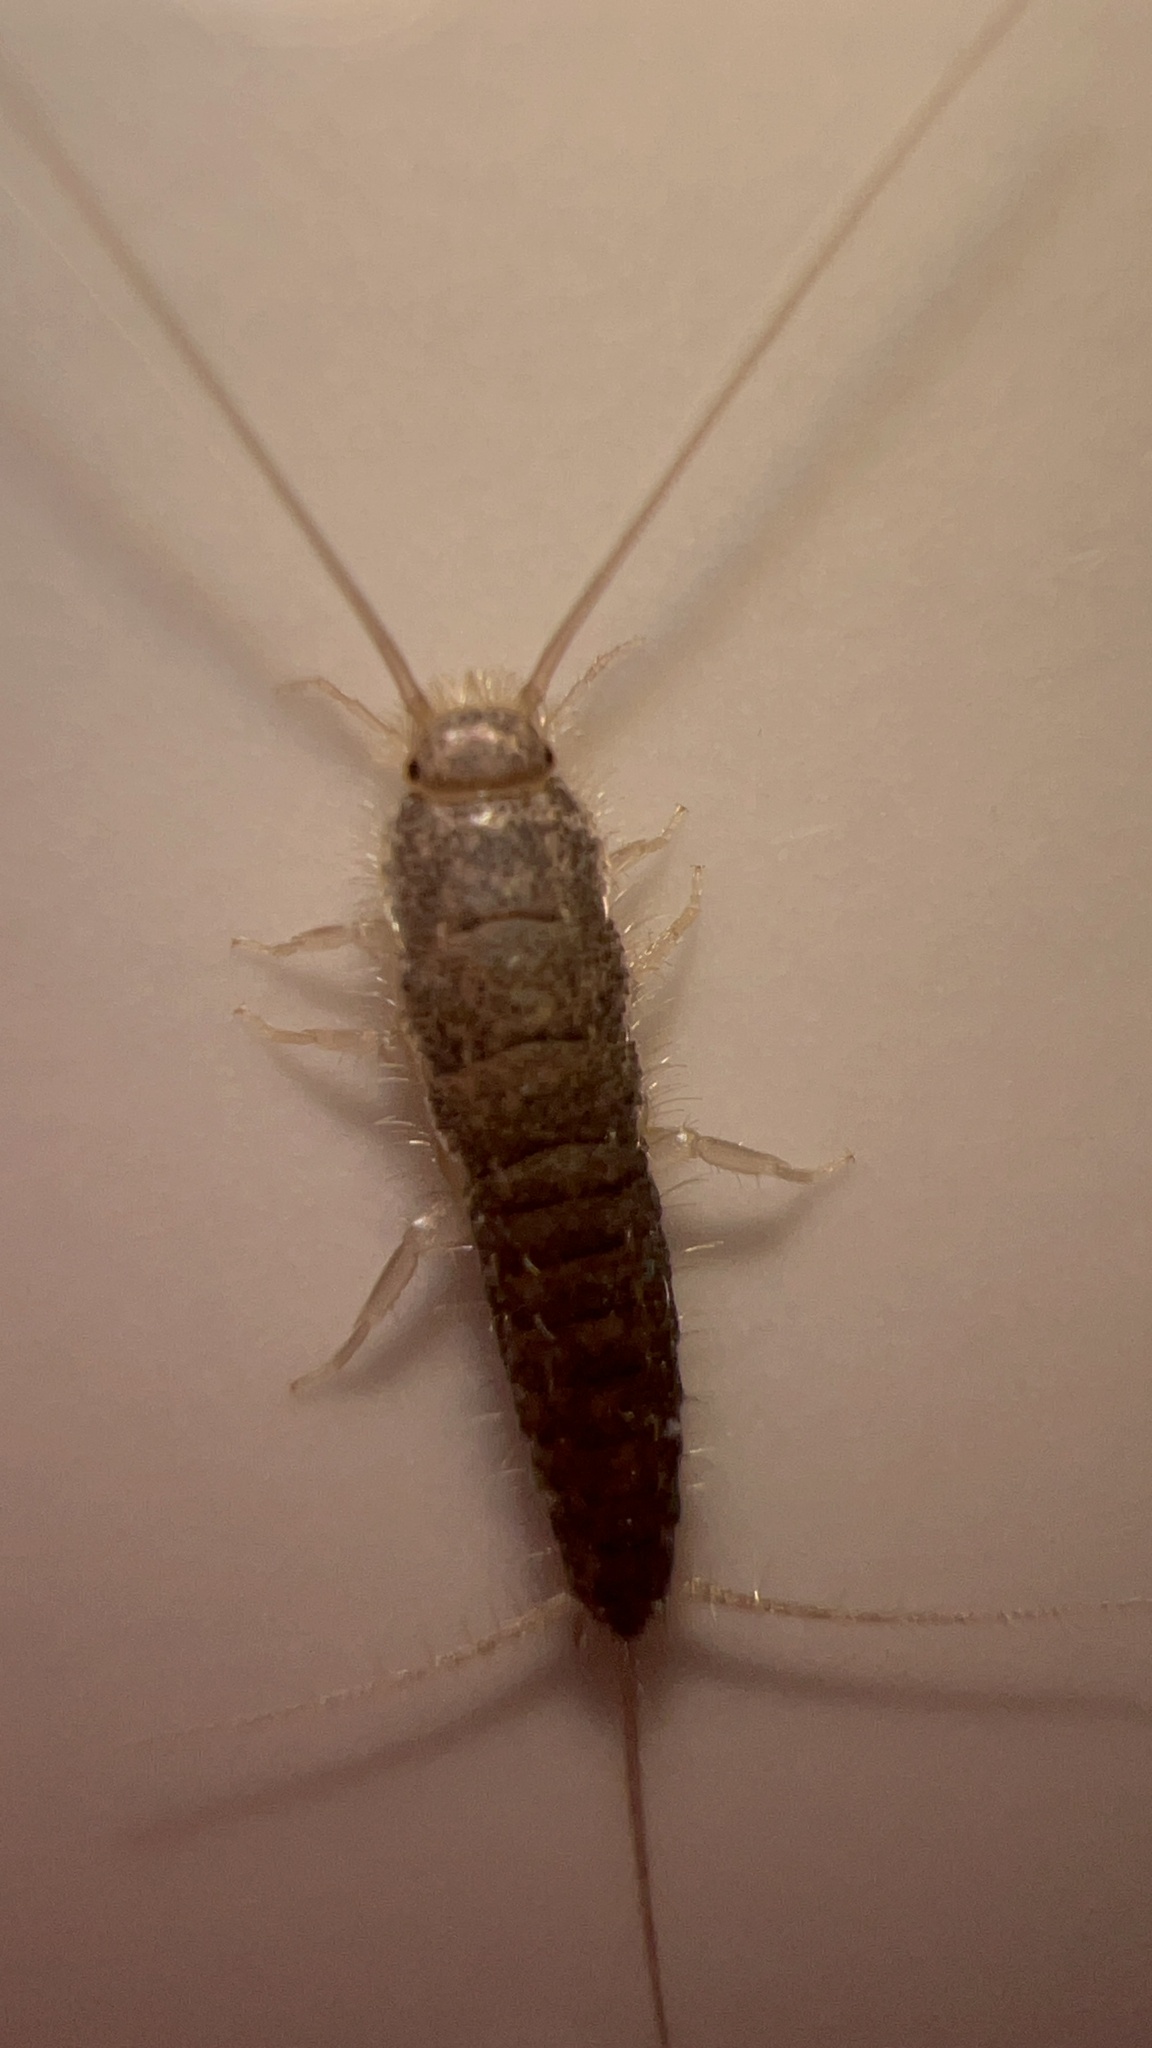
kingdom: Animalia
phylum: Arthropoda
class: Insecta
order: Zygentoma
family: Lepismatidae
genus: Ctenolepisma
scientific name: Ctenolepisma longicaudatum
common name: Silverfish
